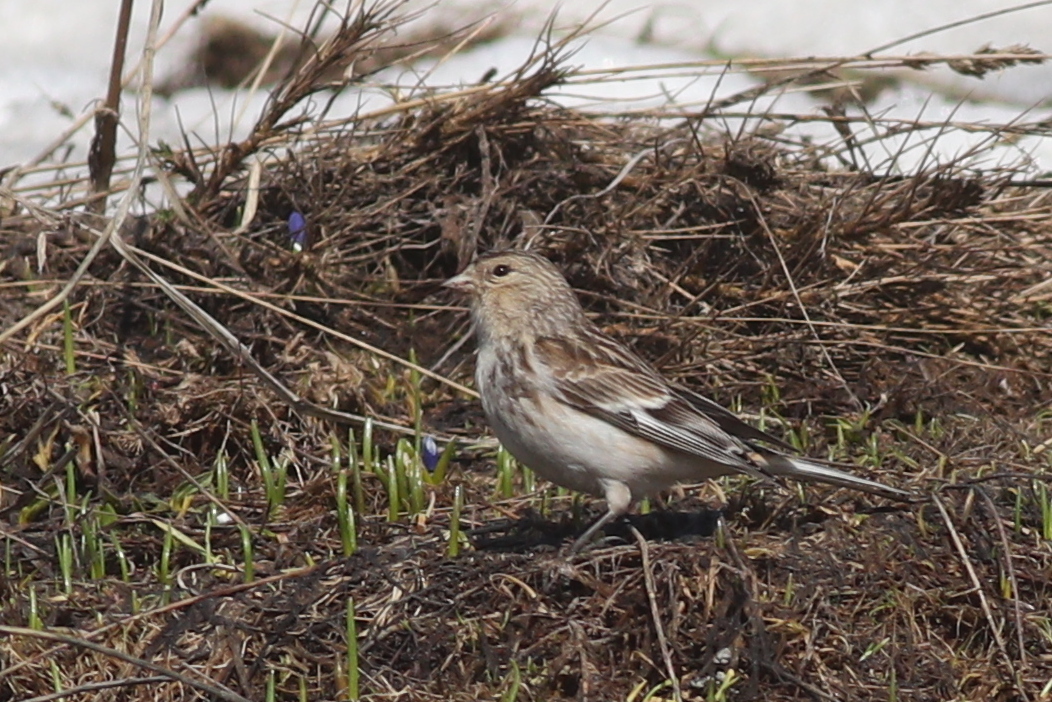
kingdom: Animalia
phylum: Chordata
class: Aves
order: Passeriformes
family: Fringillidae
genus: Linaria
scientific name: Linaria flavirostris
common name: Twite
